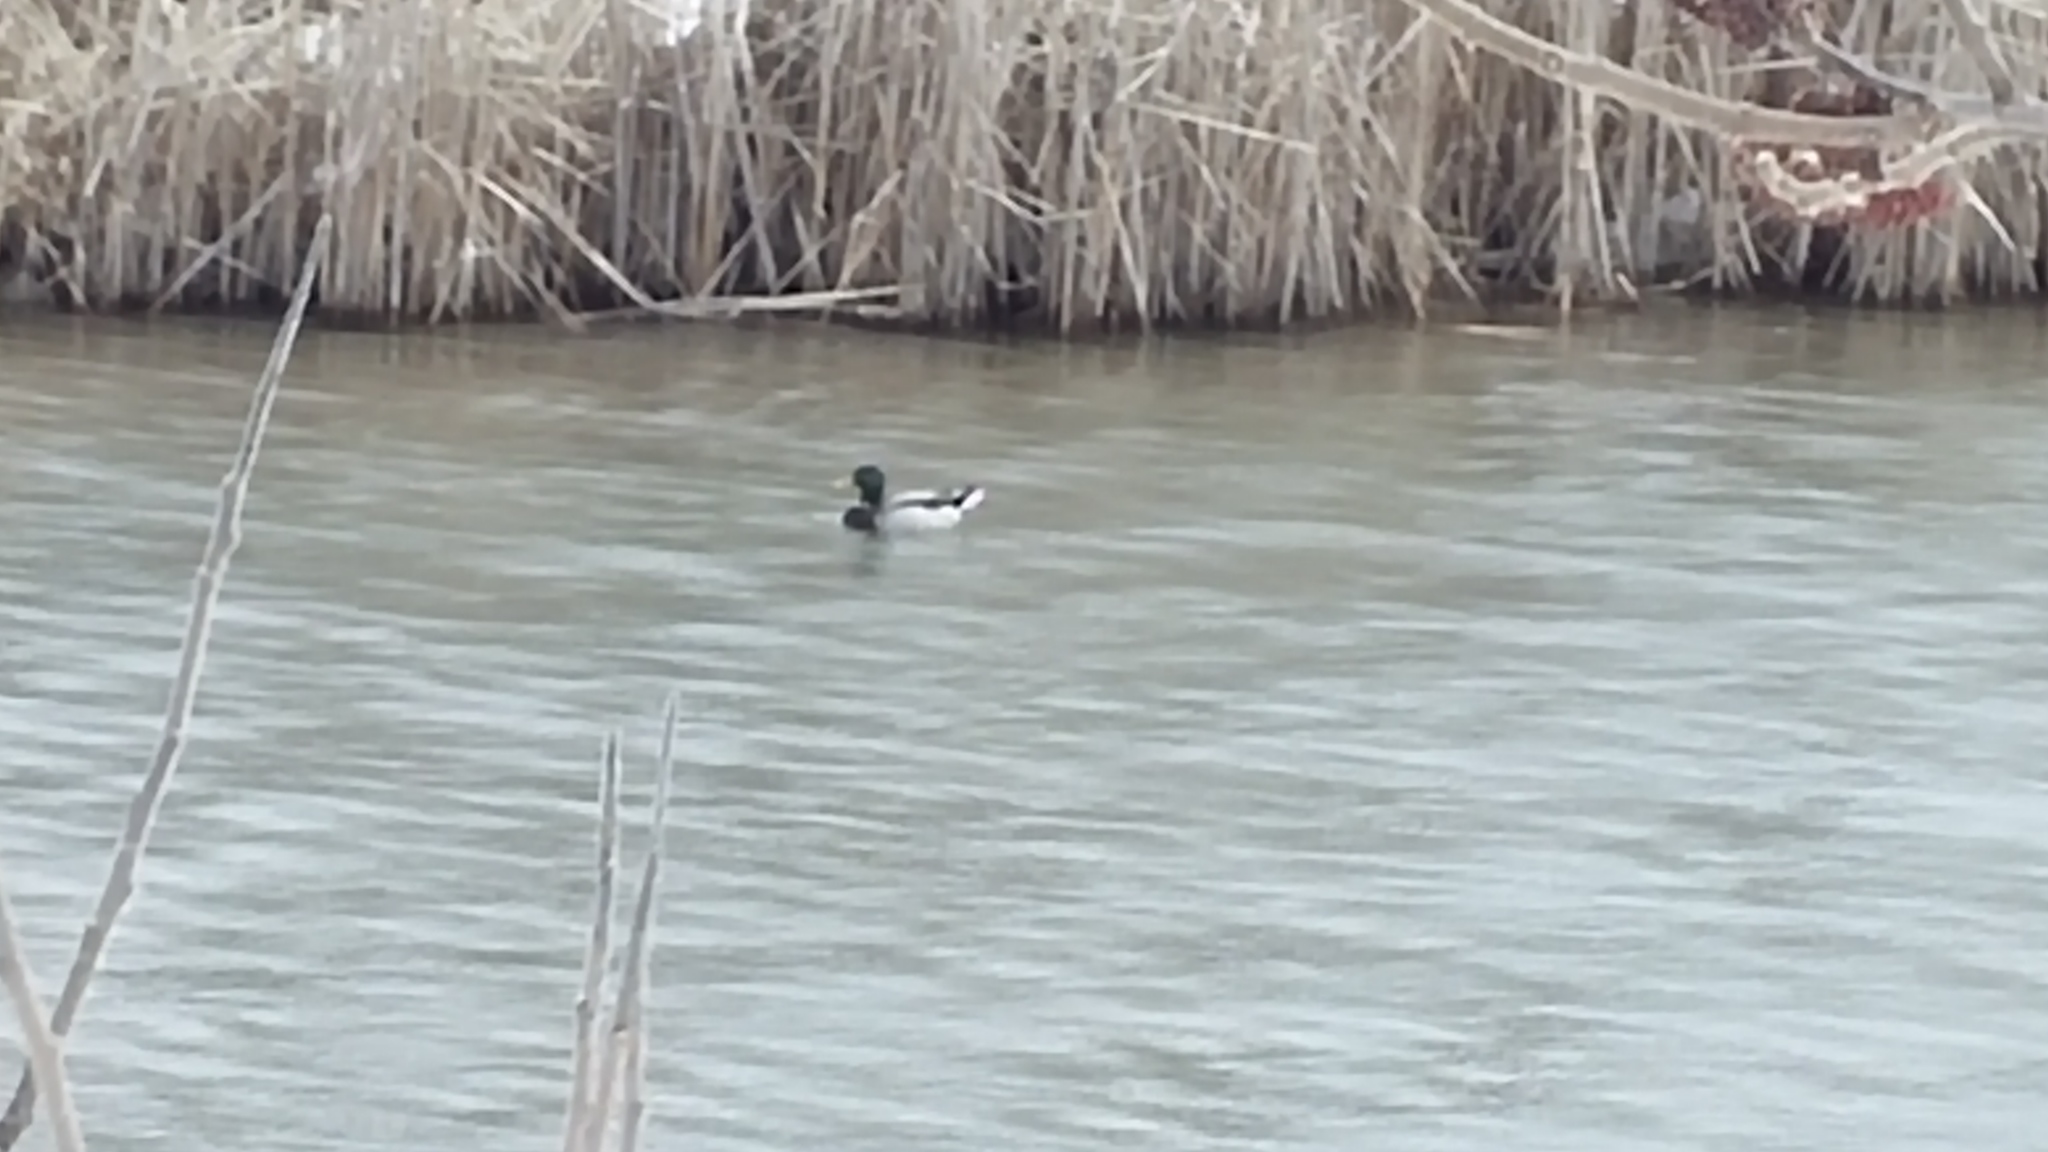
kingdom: Animalia
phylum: Chordata
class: Aves
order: Anseriformes
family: Anatidae
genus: Anas
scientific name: Anas platyrhynchos
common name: Mallard
